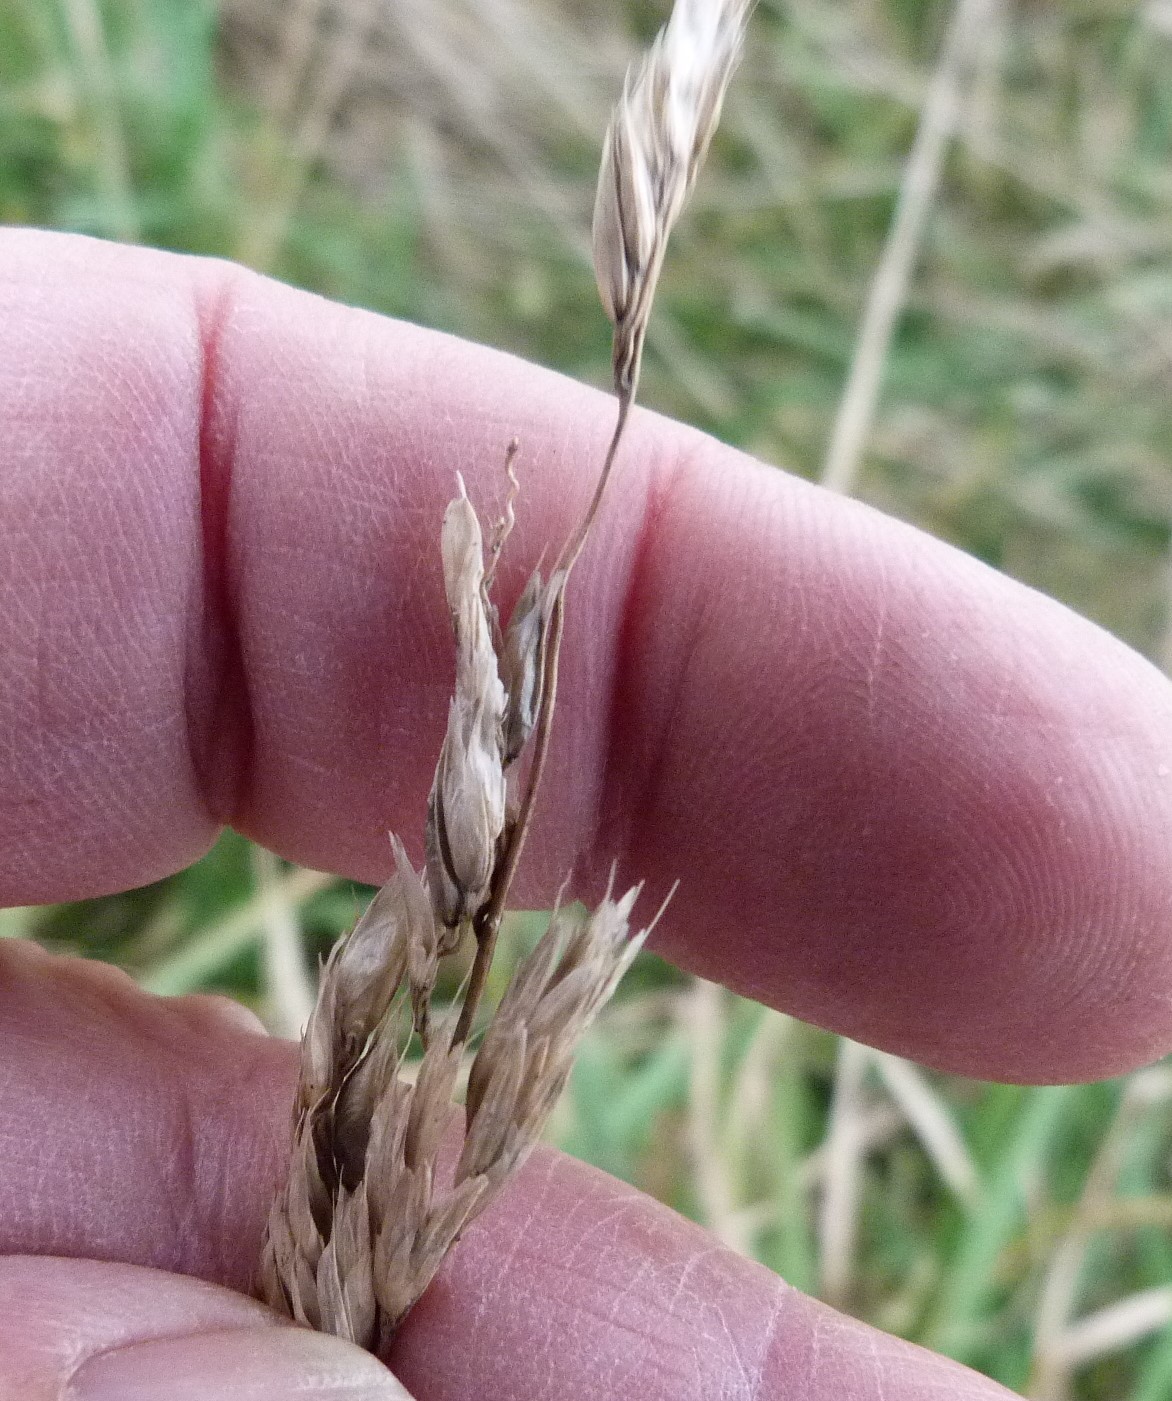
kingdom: Plantae
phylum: Tracheophyta
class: Liliopsida
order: Poales
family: Poaceae
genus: Anthoxanthum
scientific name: Anthoxanthum redolens
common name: Sweet holy grass
